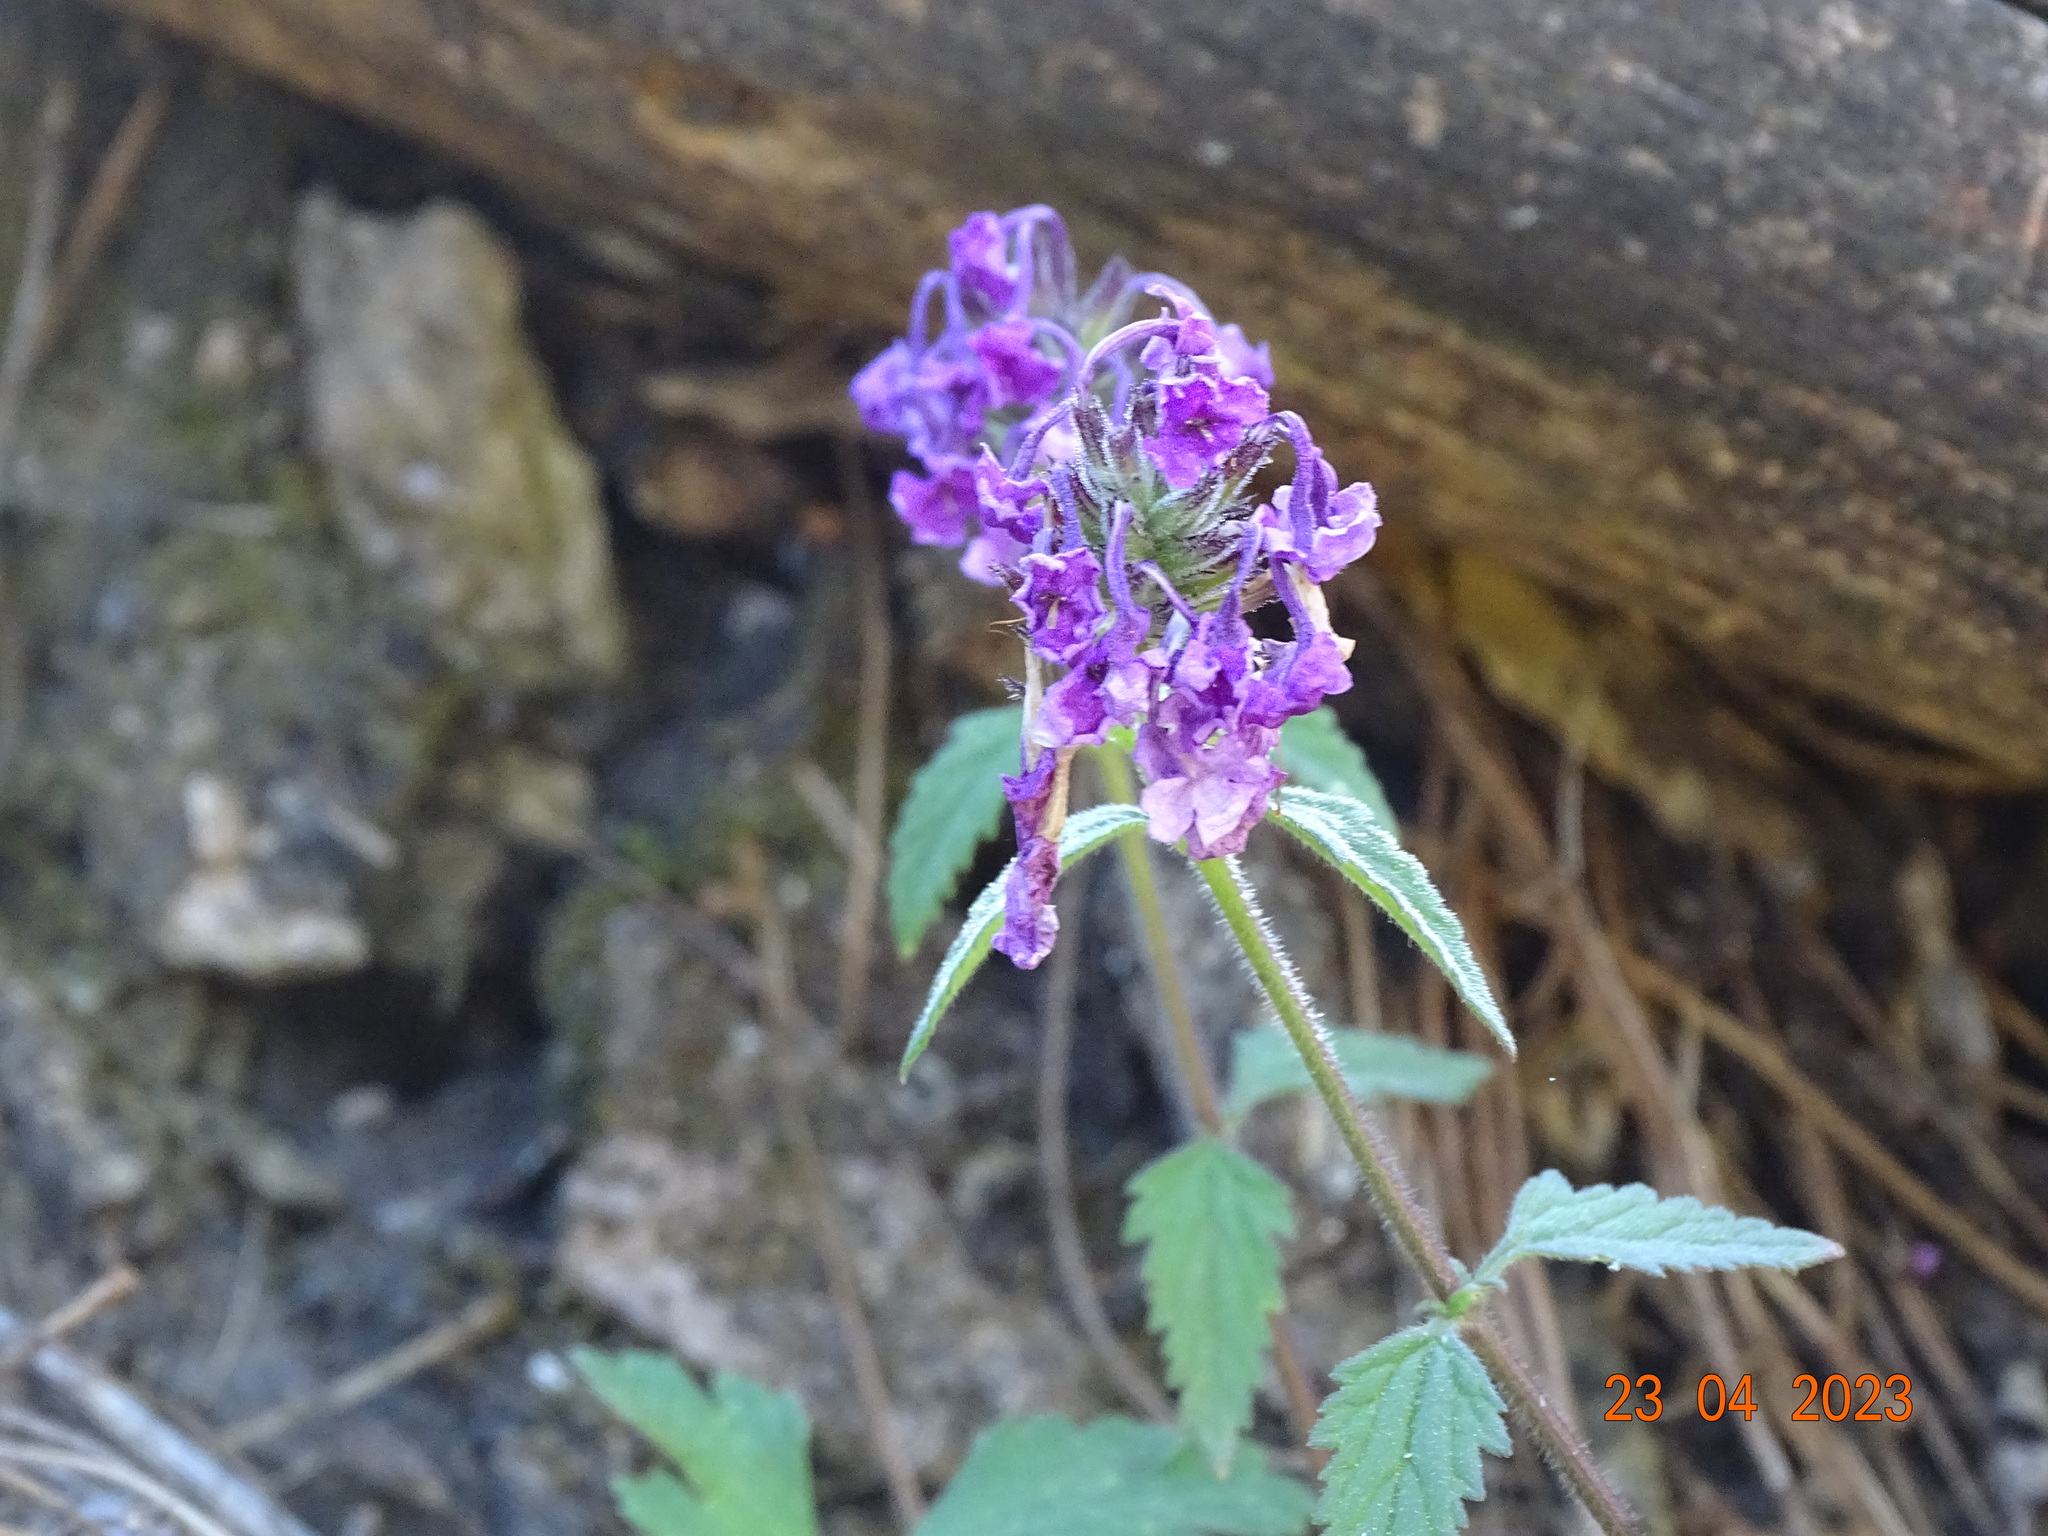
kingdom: Plantae
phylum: Tracheophyta
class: Magnoliopsida
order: Ericales
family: Polemoniaceae
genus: Loeselia
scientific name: Loeselia glandulosa
